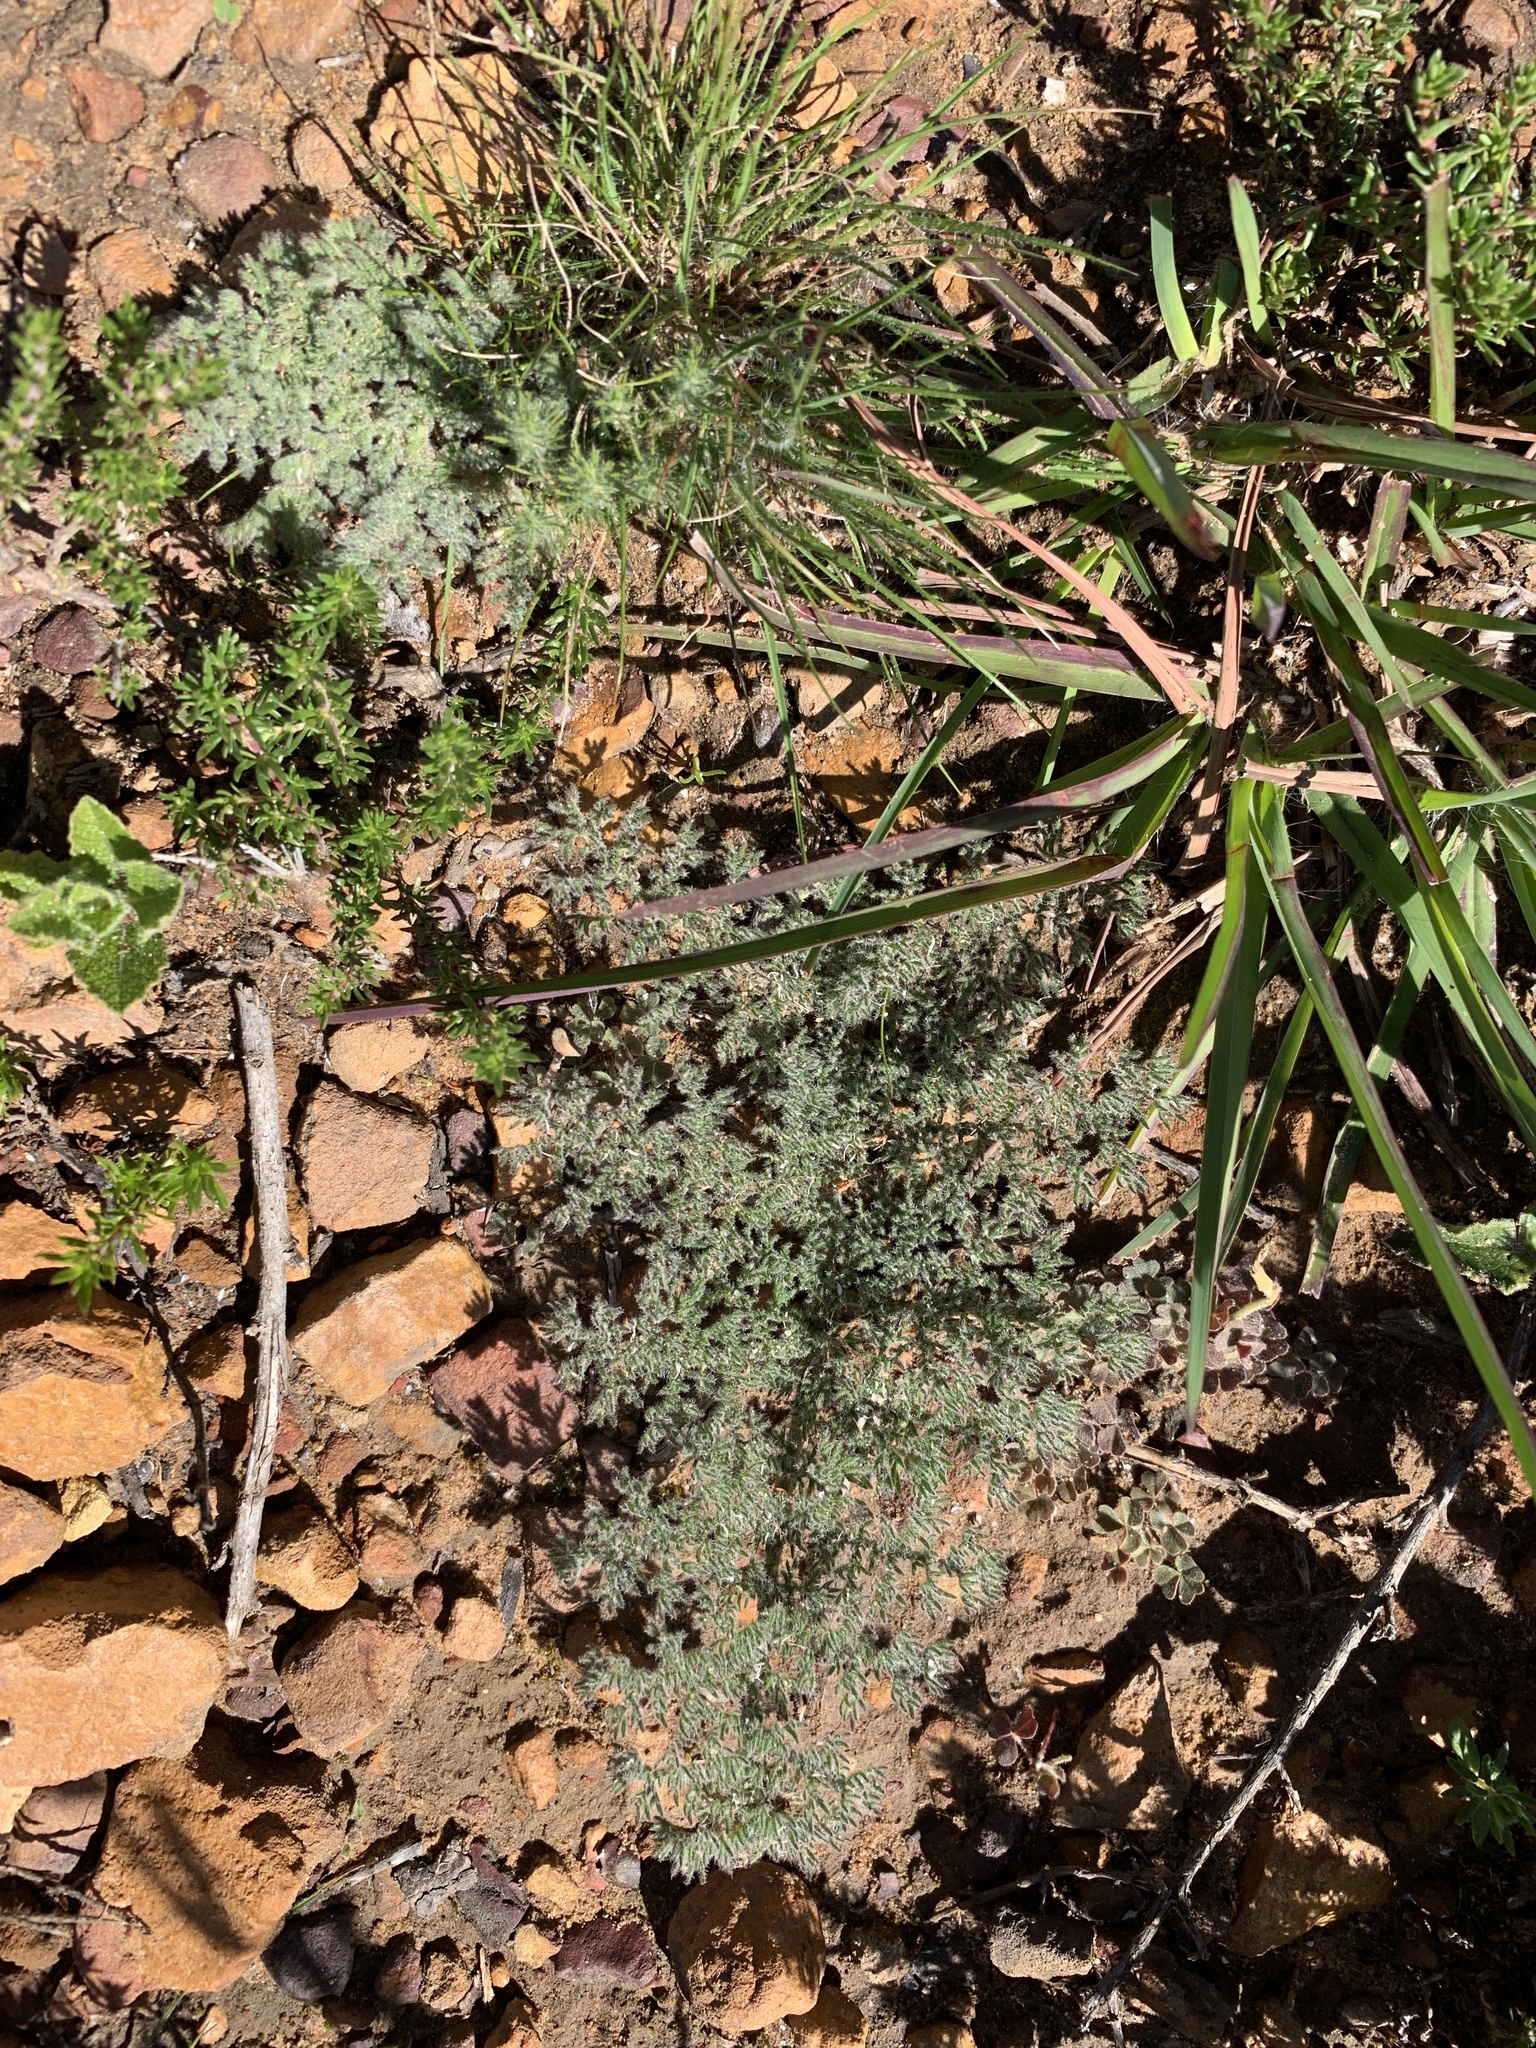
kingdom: Plantae
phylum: Tracheophyta
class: Magnoliopsida
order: Geraniales
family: Geraniaceae
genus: Pelargonium
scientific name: Pelargonium triste
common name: Night-scent pelargonium
